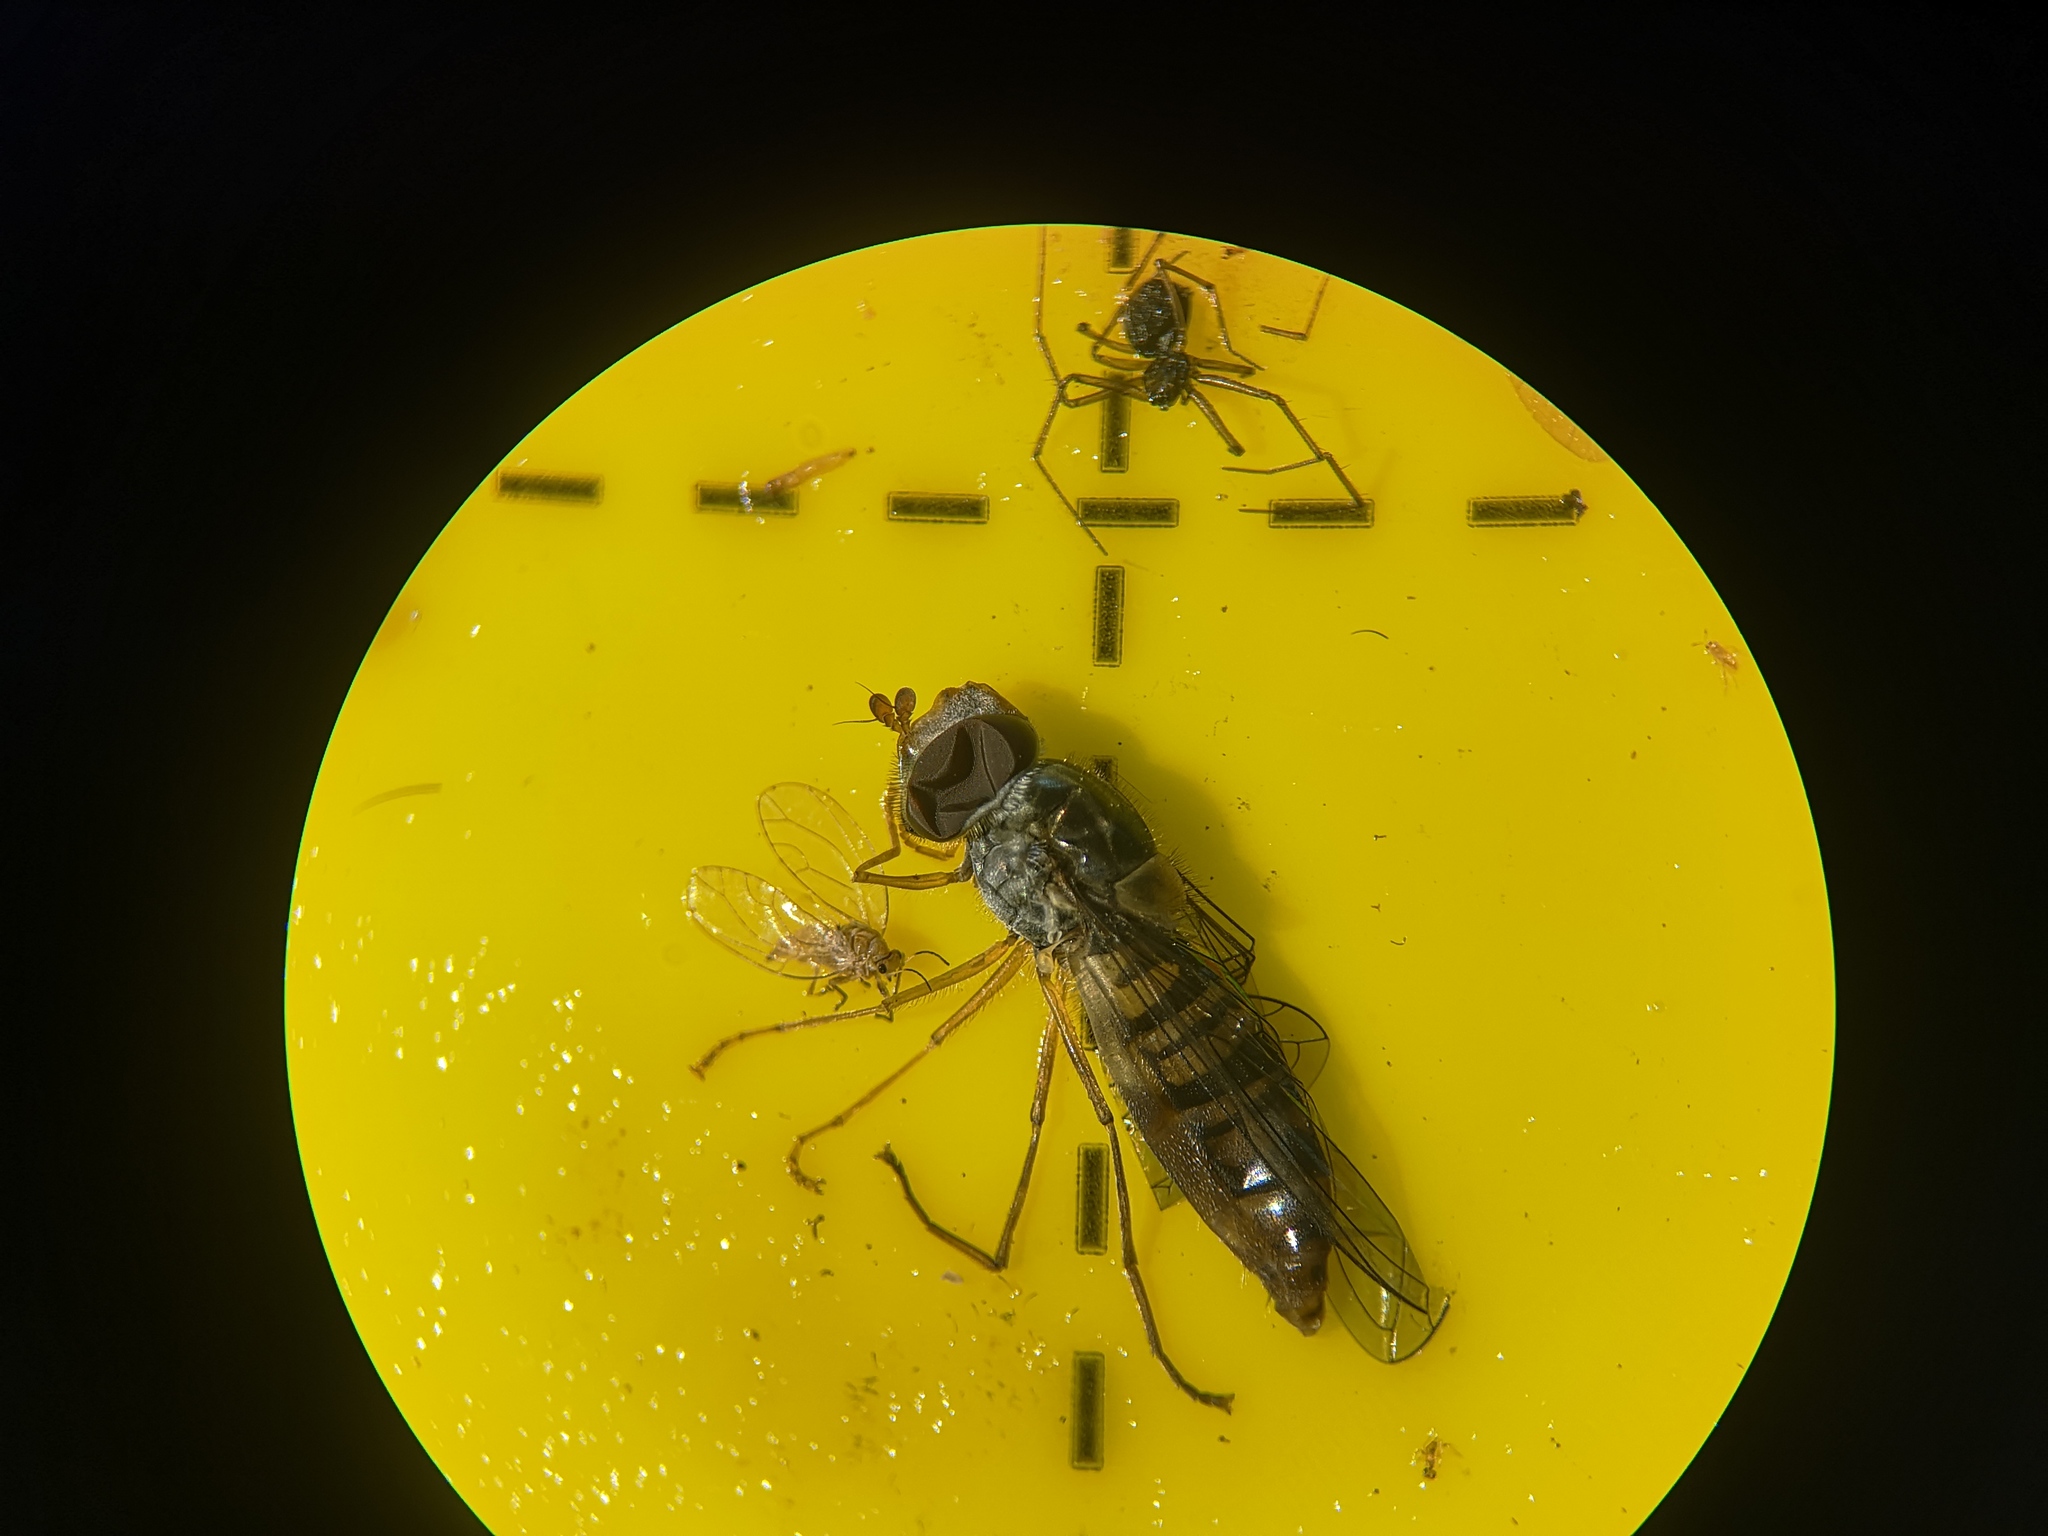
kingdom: Animalia
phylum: Arthropoda
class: Insecta
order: Diptera
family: Syrphidae
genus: Episyrphus
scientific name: Episyrphus balteatus
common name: Marmalade hoverfly
